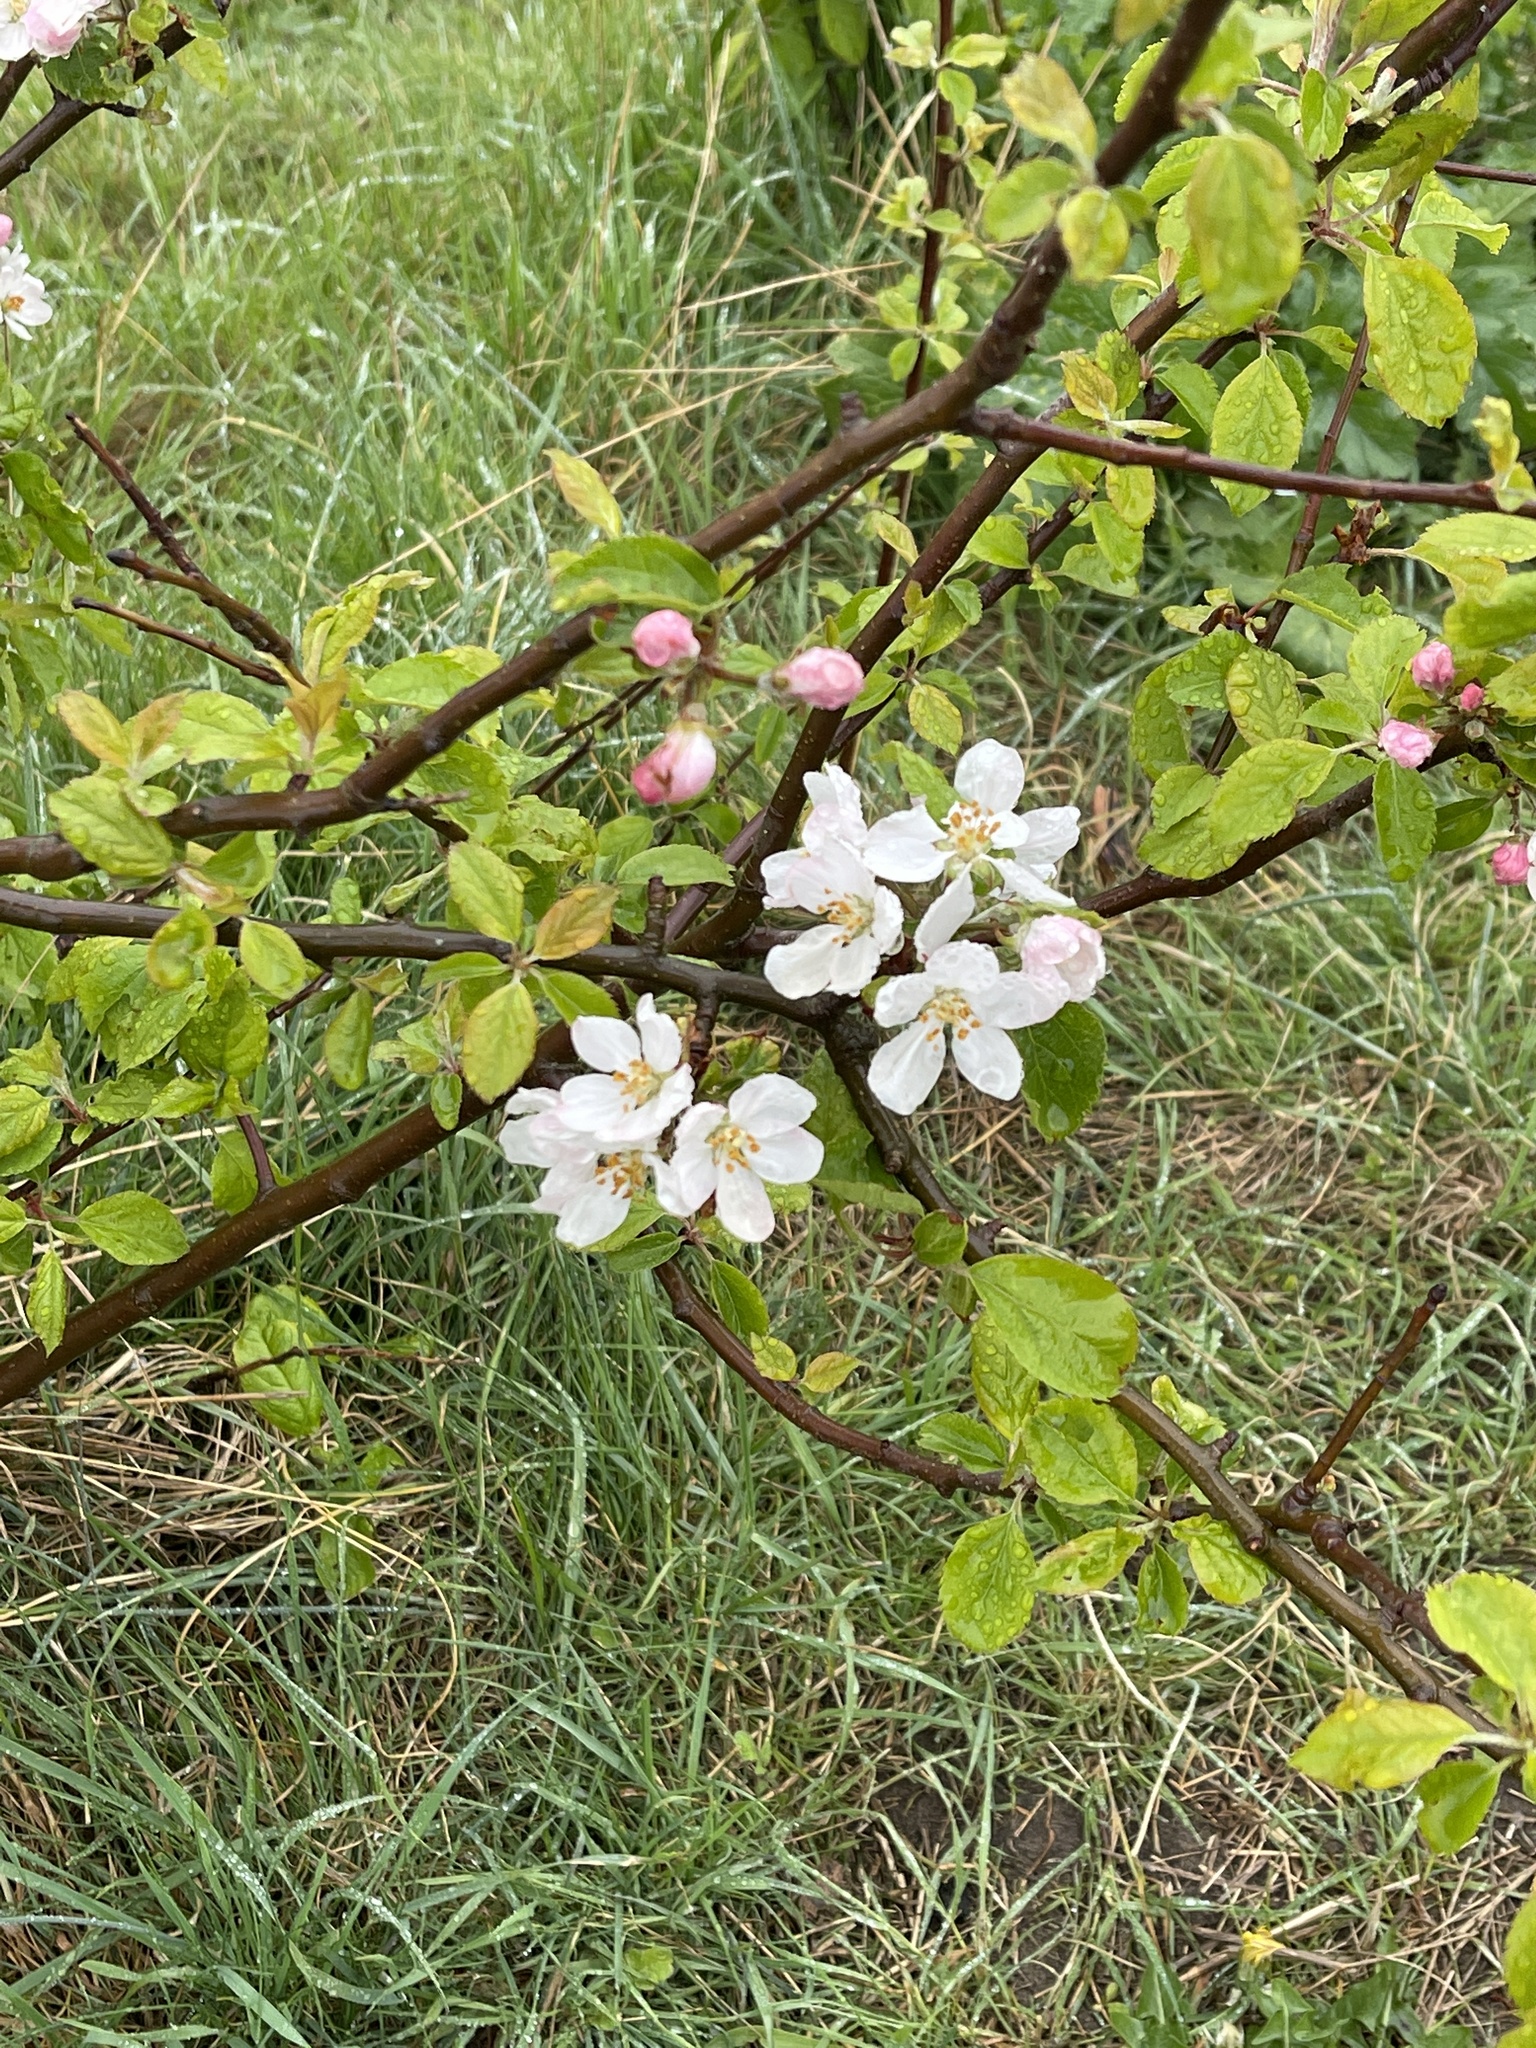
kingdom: Plantae
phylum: Tracheophyta
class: Magnoliopsida
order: Rosales
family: Rosaceae
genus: Malus
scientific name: Malus domestica
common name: Apple
